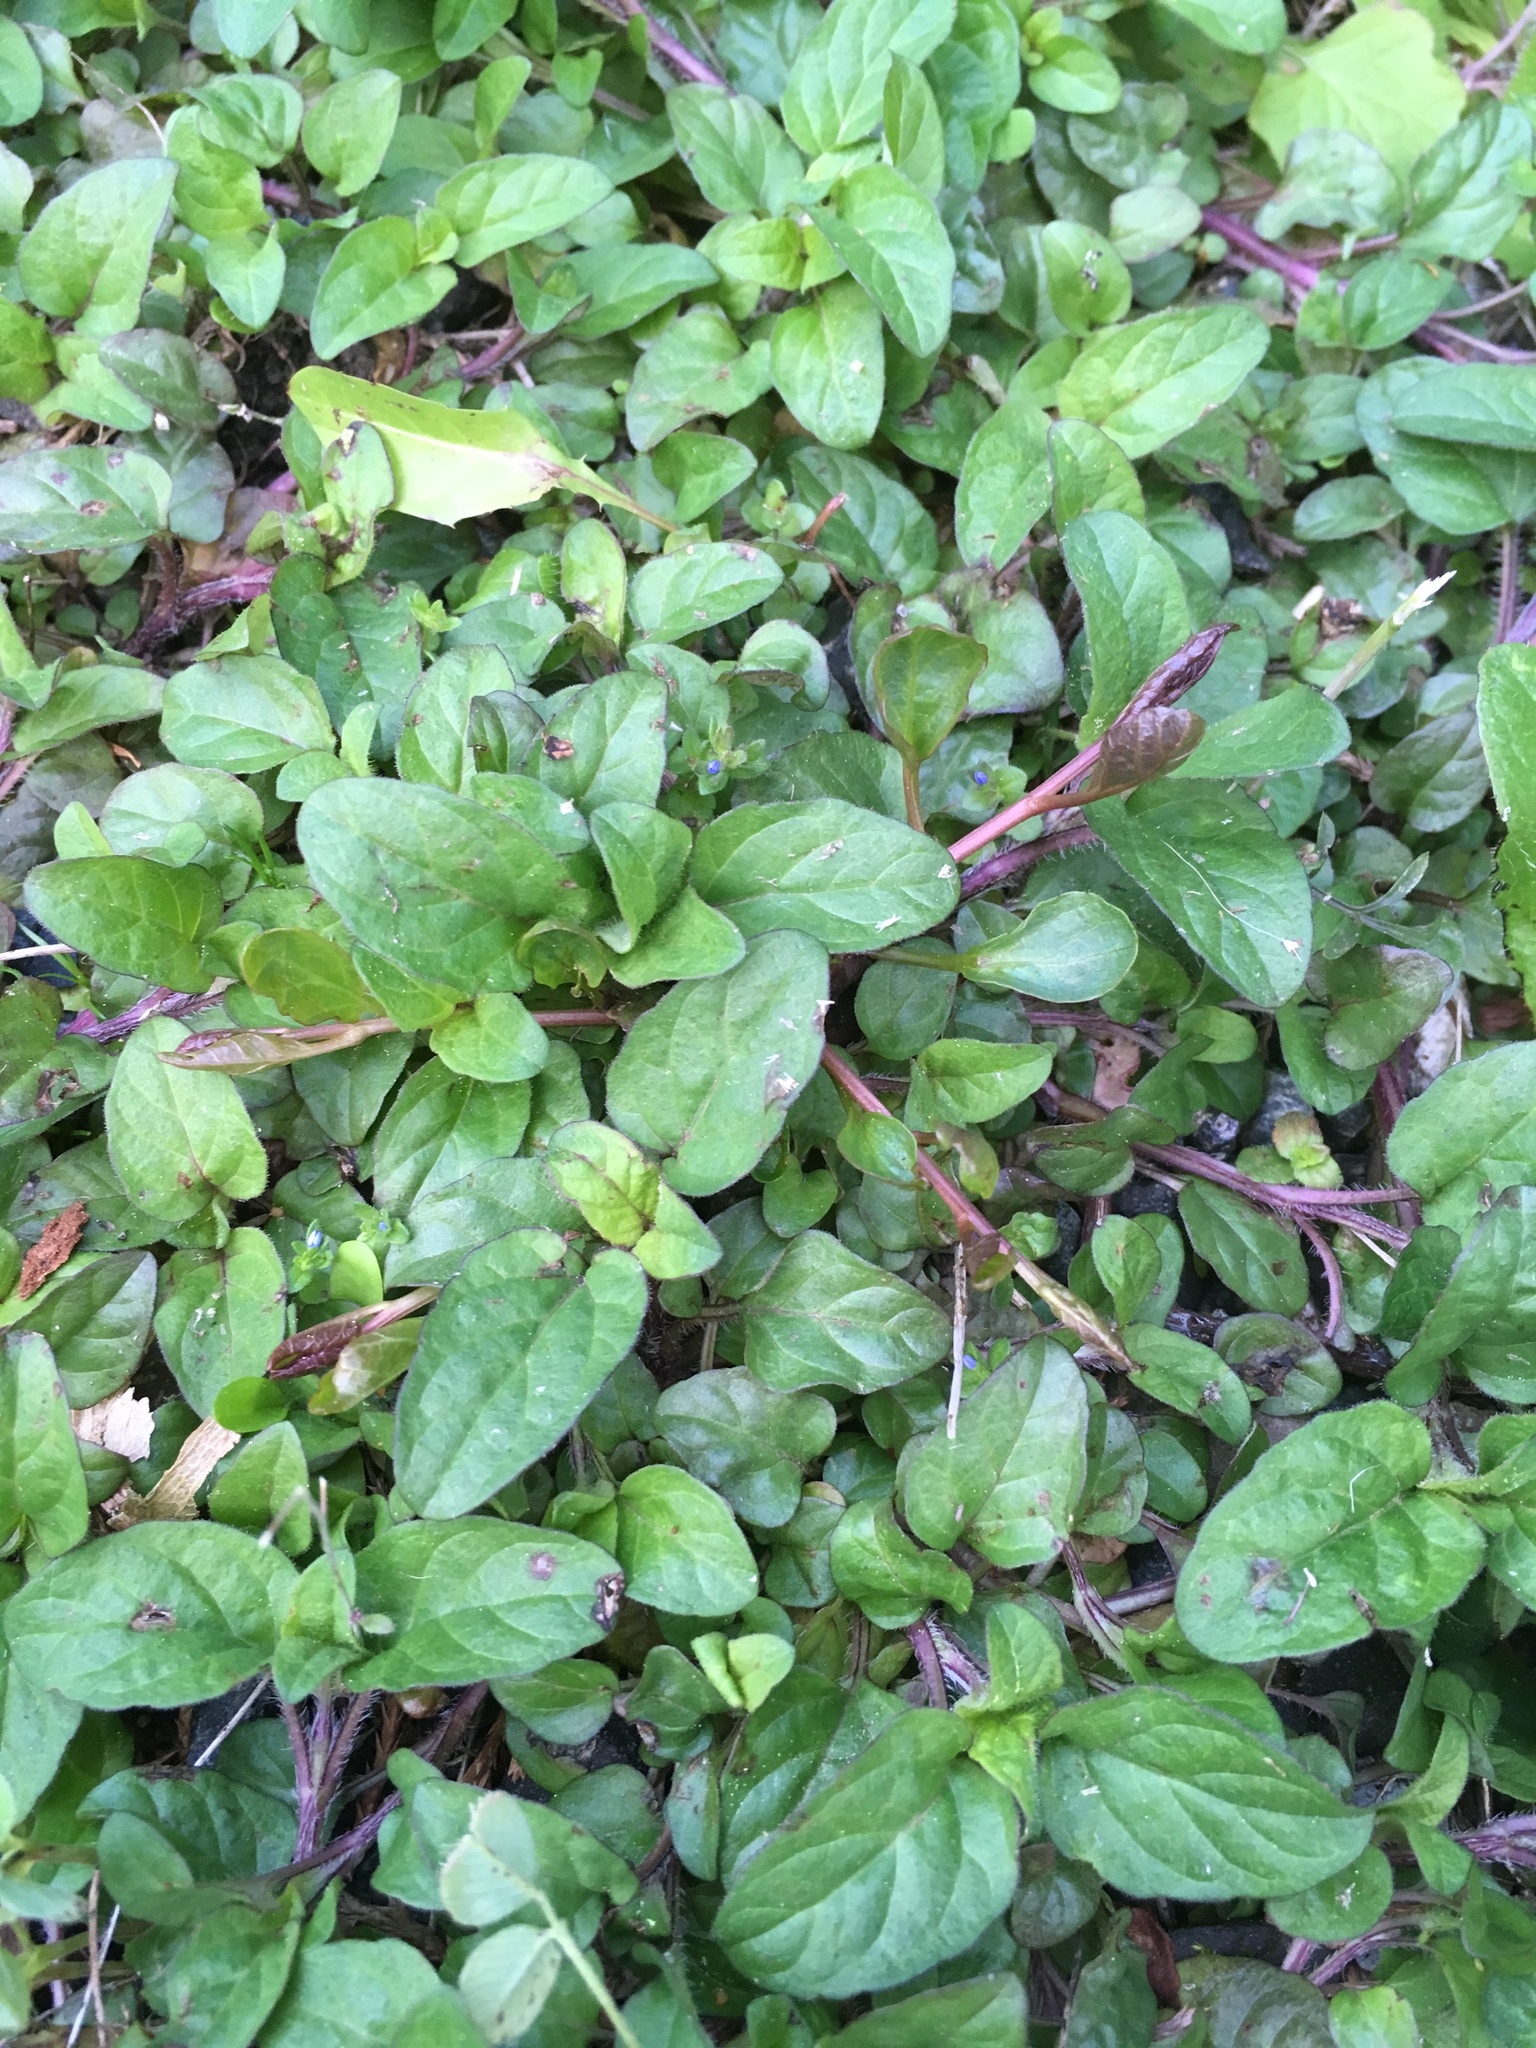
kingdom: Plantae
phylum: Tracheophyta
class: Magnoliopsida
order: Lamiales
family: Lamiaceae
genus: Prunella
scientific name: Prunella vulgaris
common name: Heal-all
